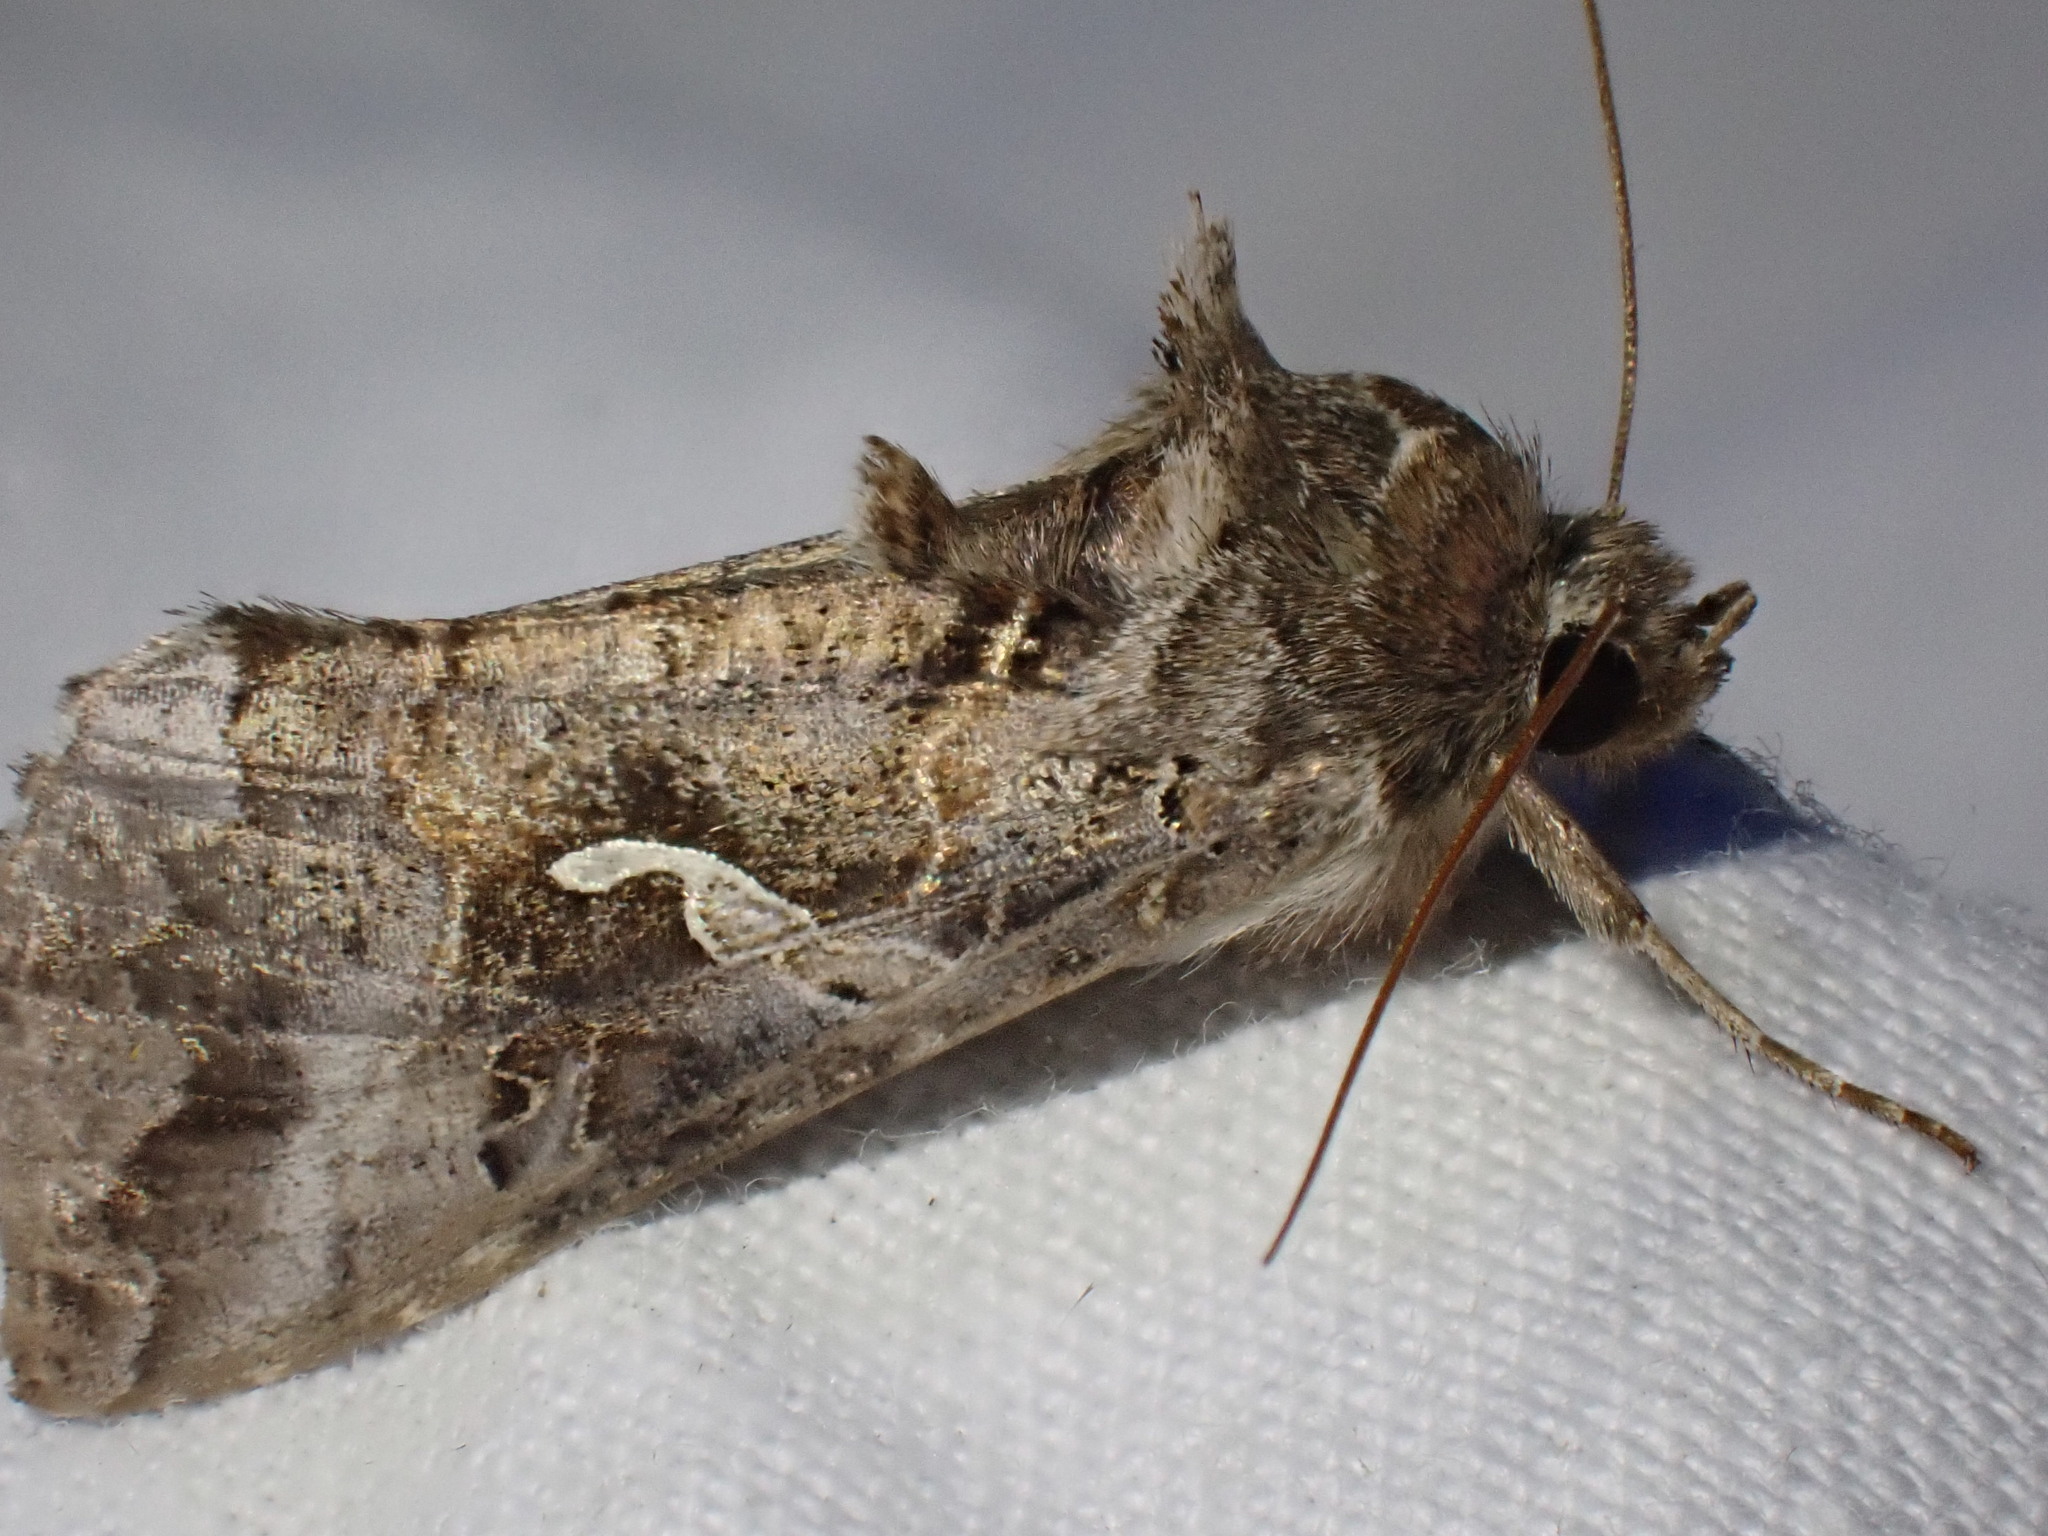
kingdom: Animalia
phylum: Arthropoda
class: Insecta
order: Lepidoptera
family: Noctuidae
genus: Autographa
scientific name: Autographa gamma
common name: Silver y
